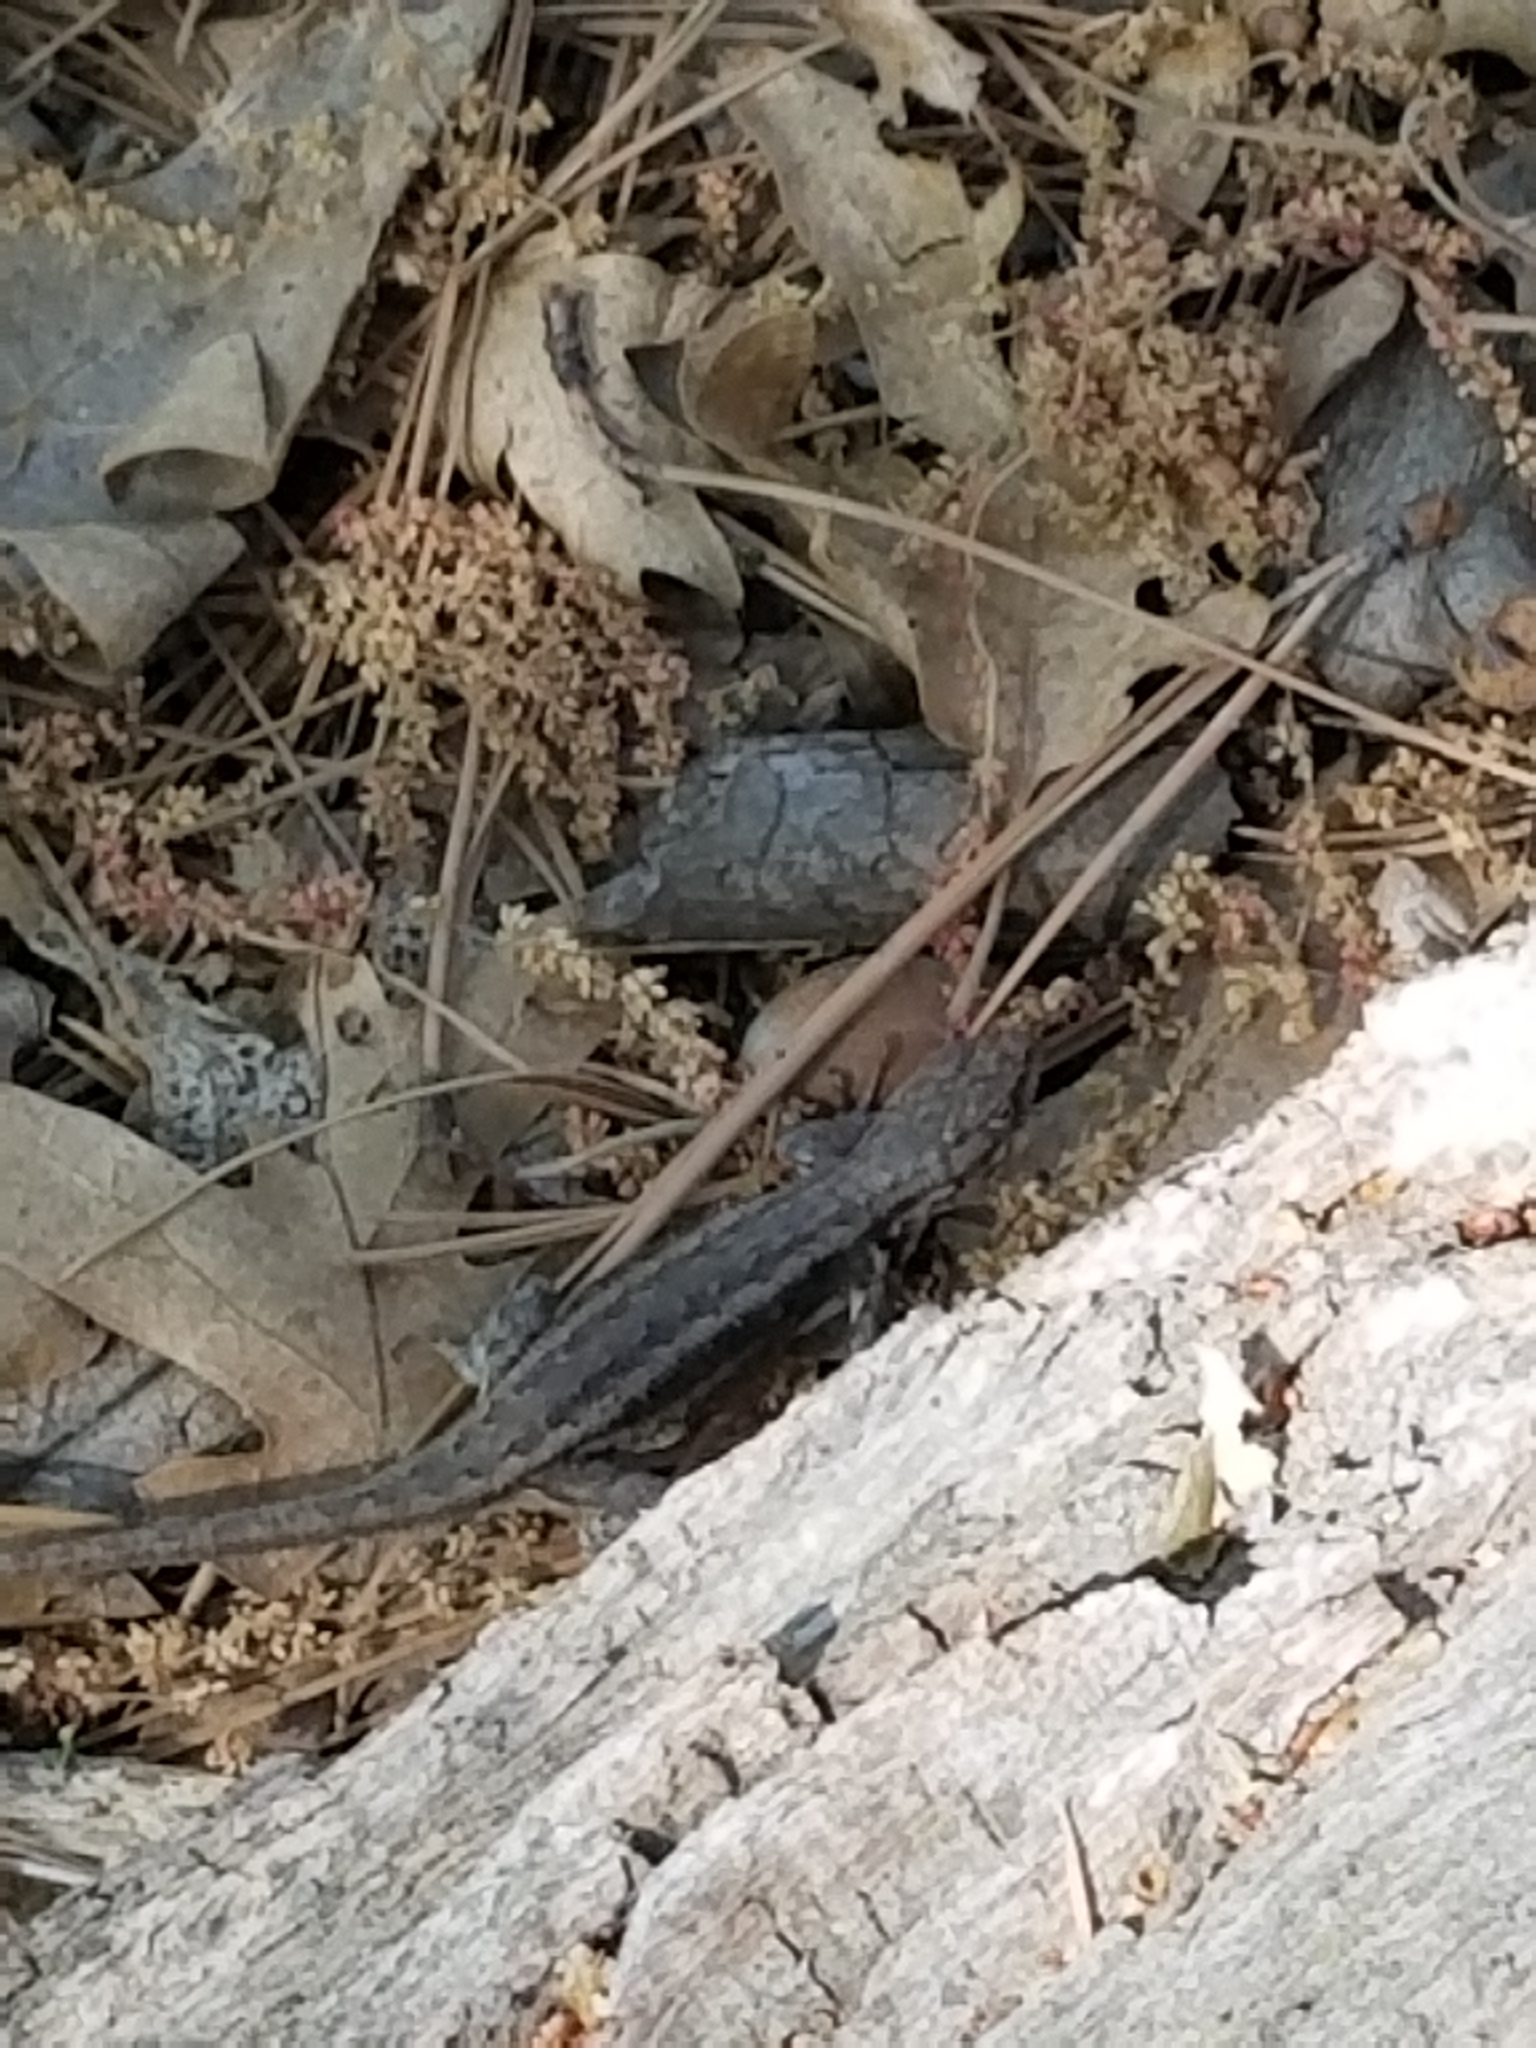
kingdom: Animalia
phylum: Chordata
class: Squamata
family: Phrynosomatidae
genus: Sceloporus
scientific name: Sceloporus graciosus
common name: Sagebrush lizard
